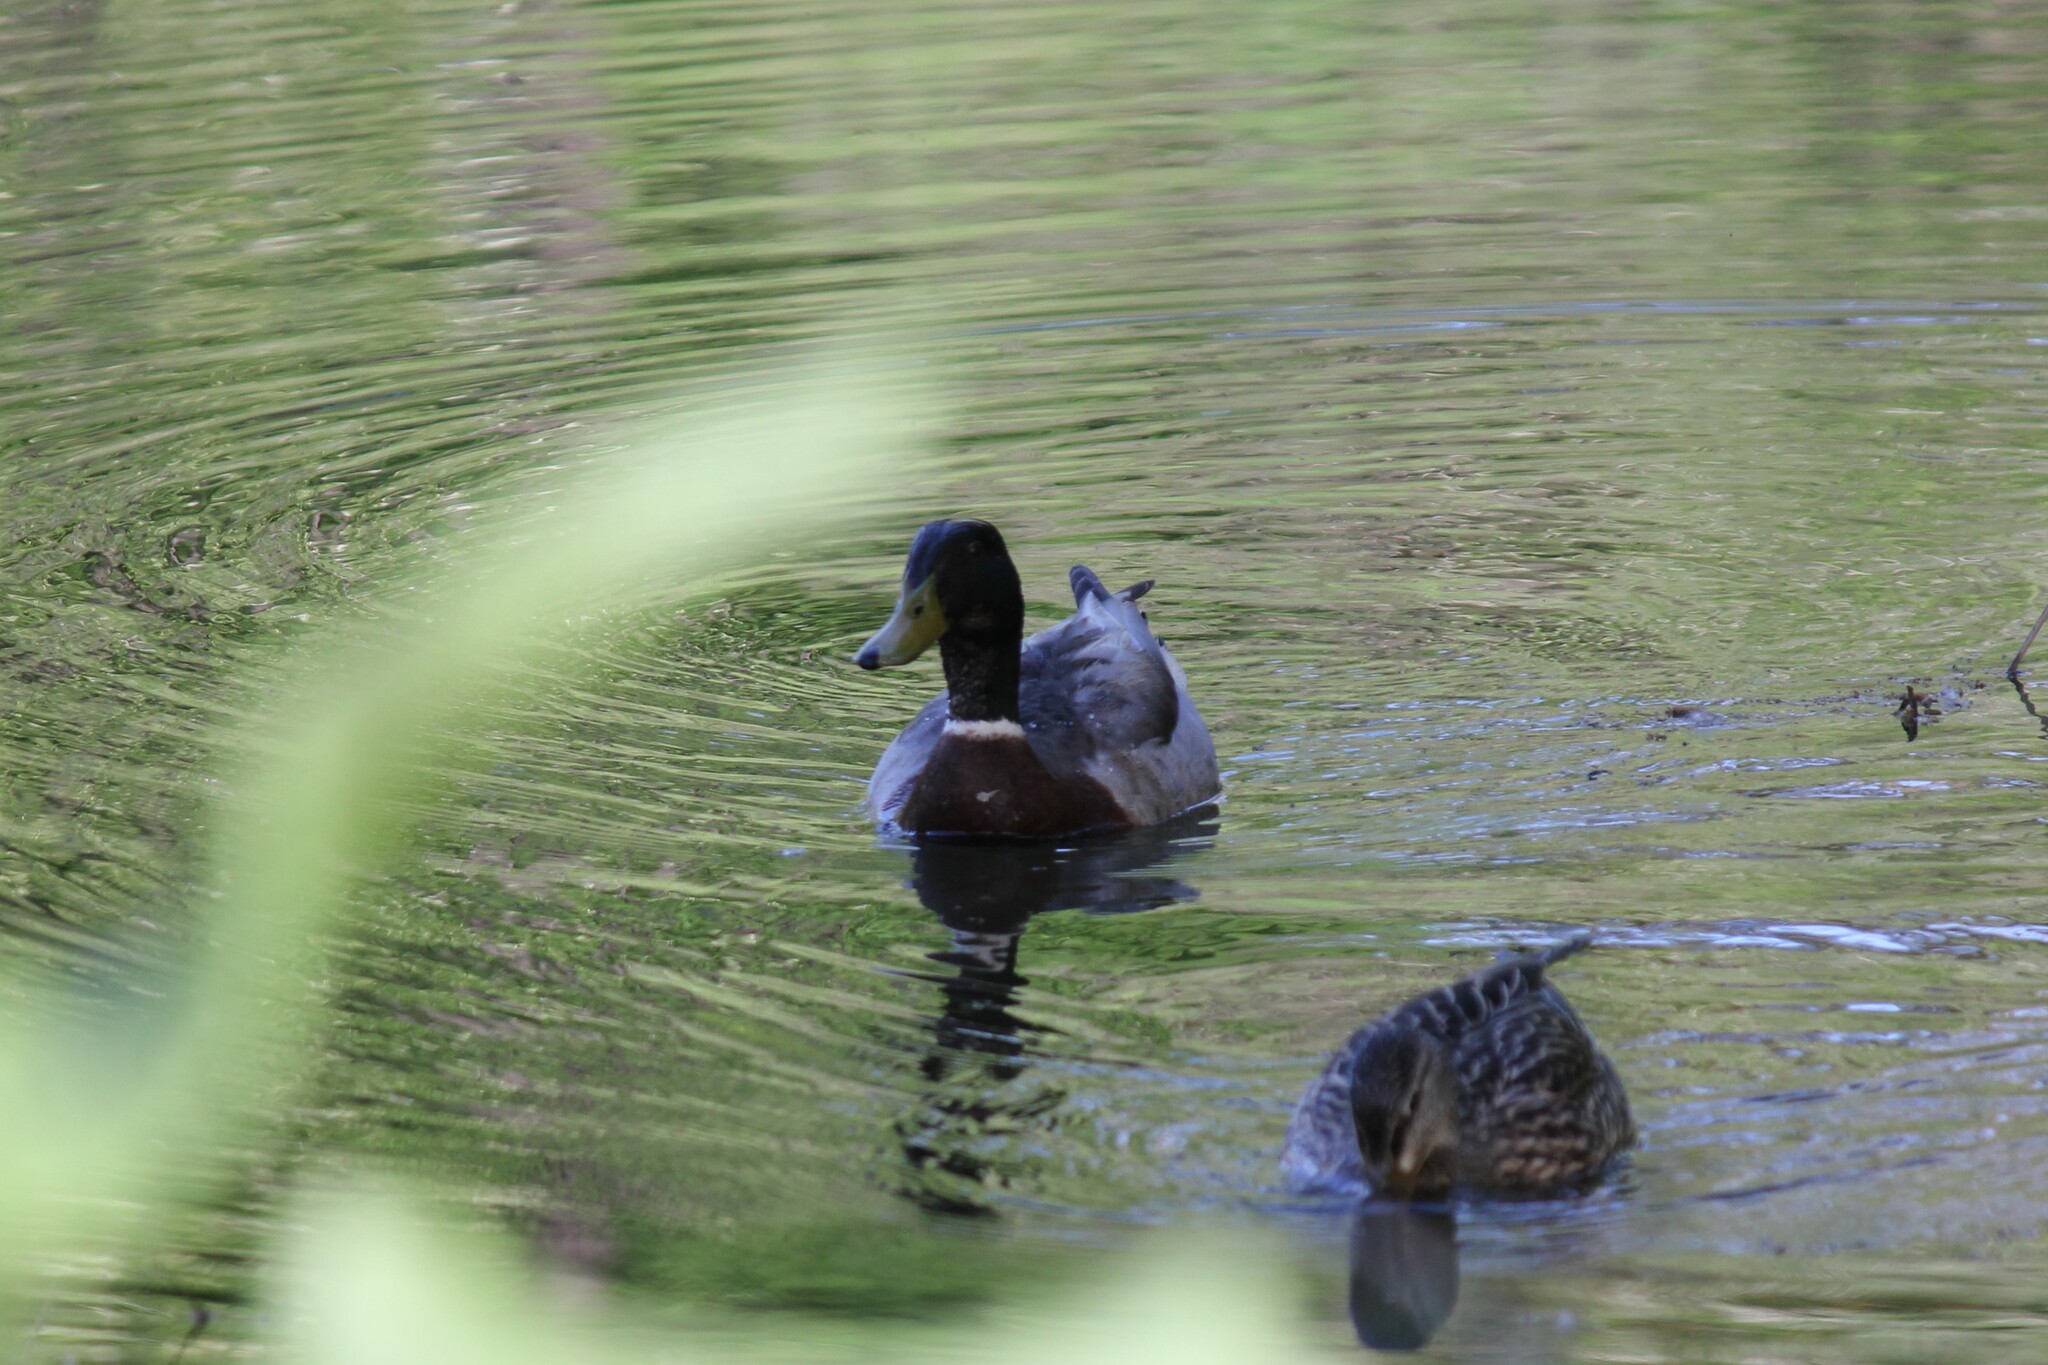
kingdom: Animalia
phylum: Chordata
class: Aves
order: Anseriformes
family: Anatidae
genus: Anas
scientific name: Anas platyrhynchos
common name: Mallard
